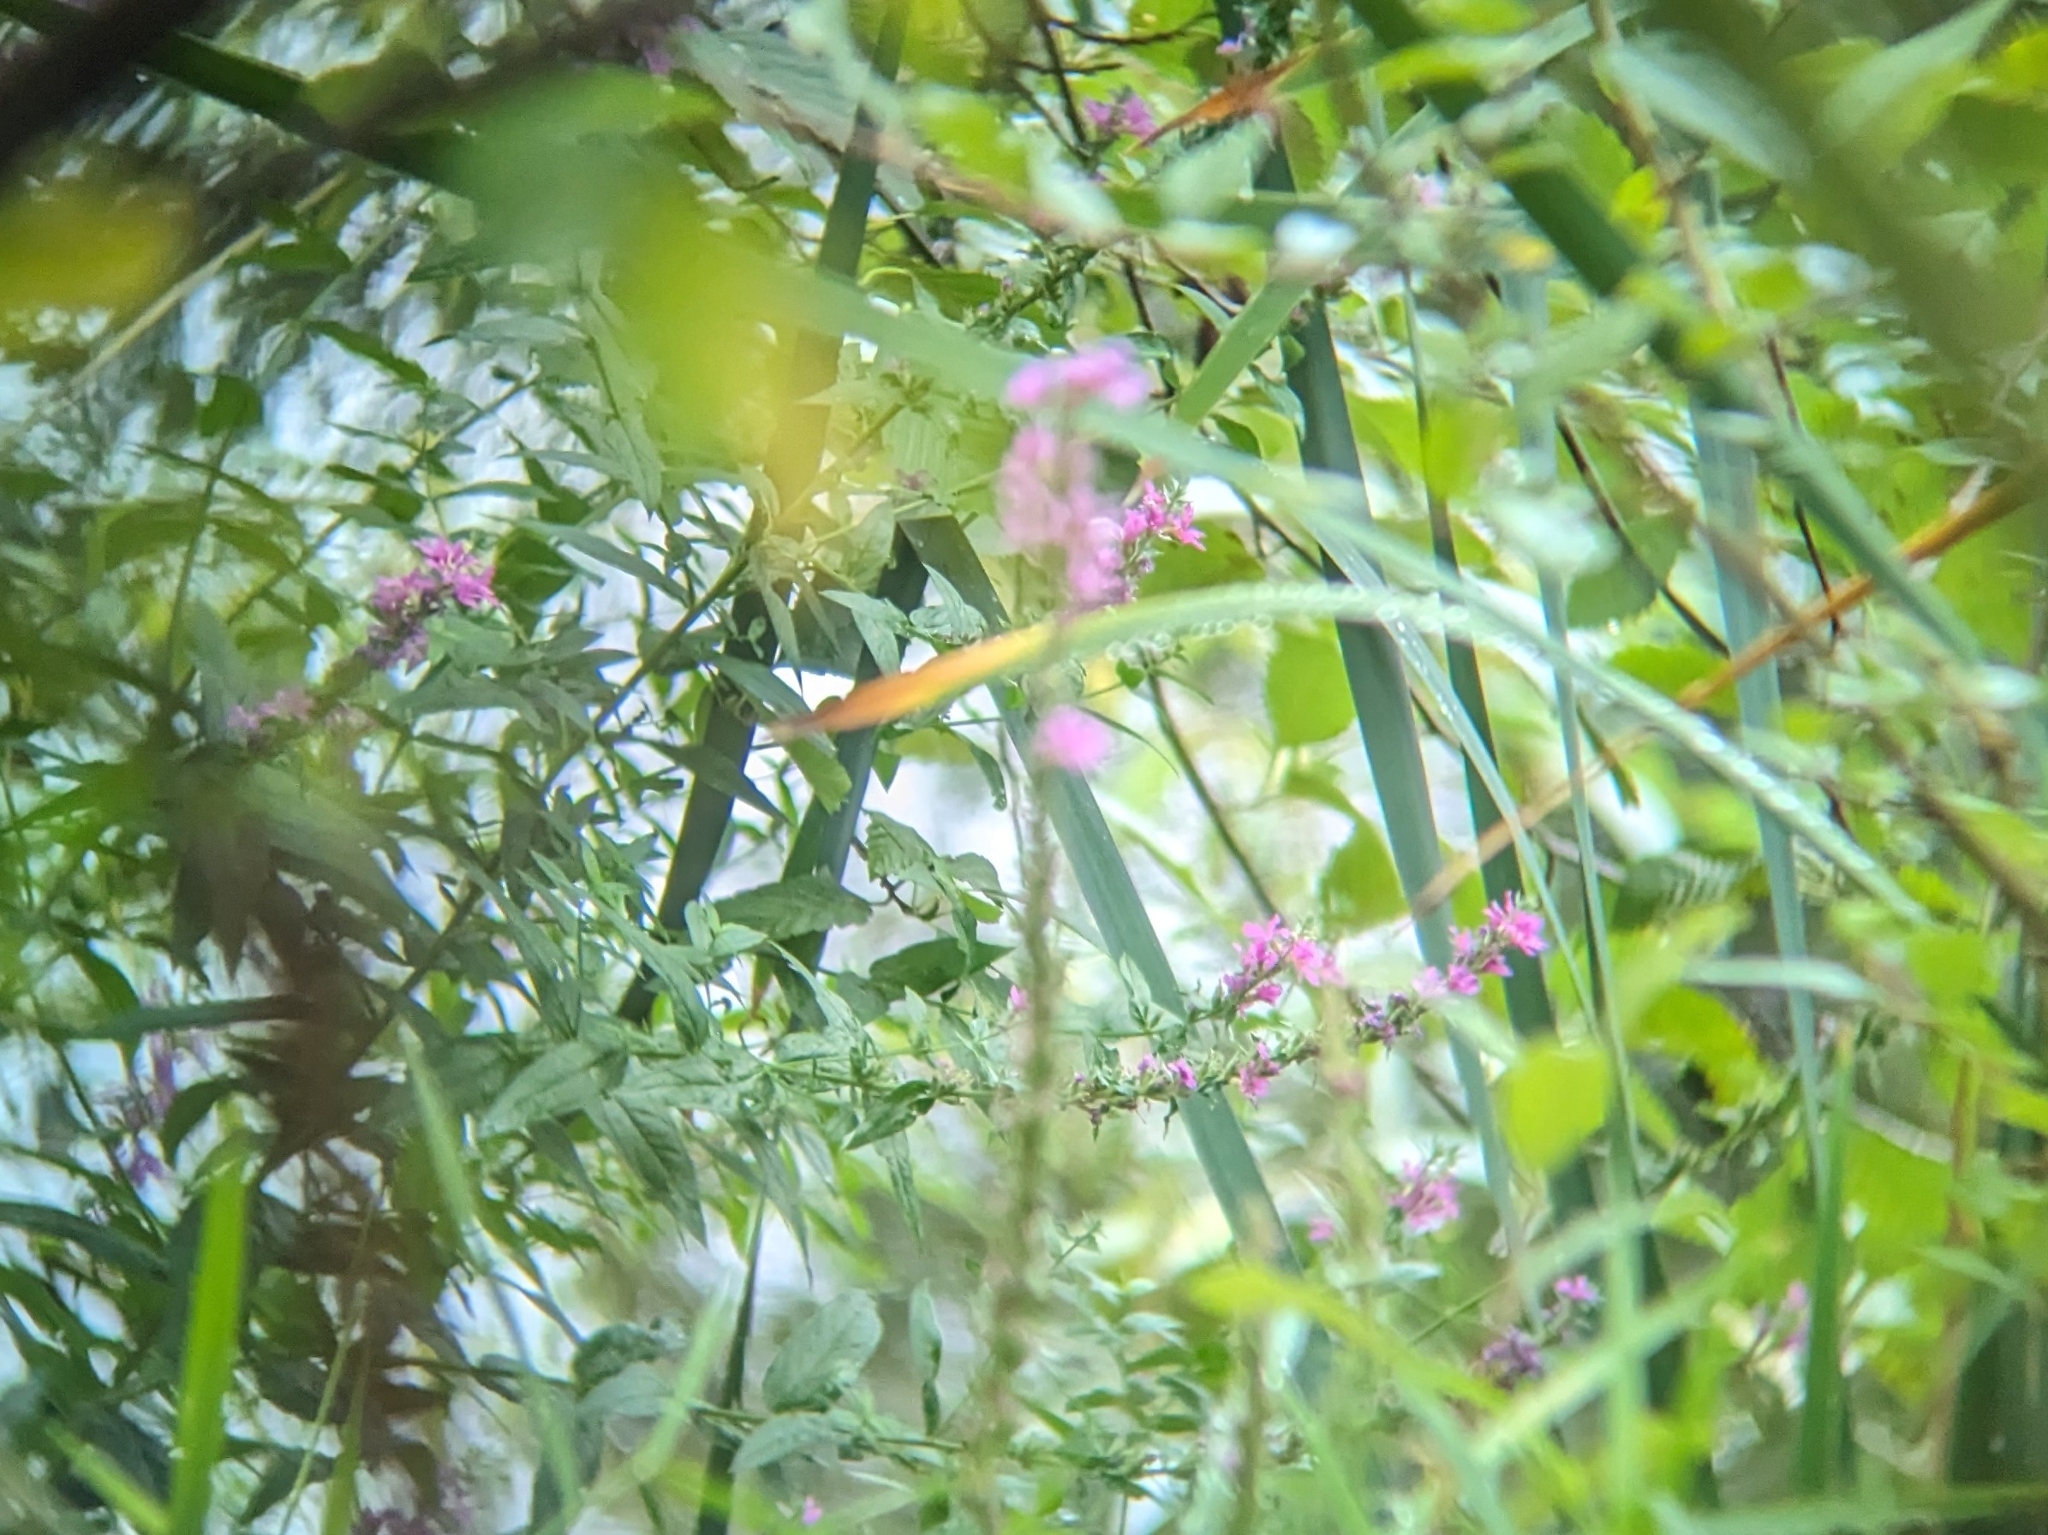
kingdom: Plantae
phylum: Tracheophyta
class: Magnoliopsida
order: Myrtales
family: Lythraceae
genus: Lythrum
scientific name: Lythrum salicaria
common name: Purple loosestrife
